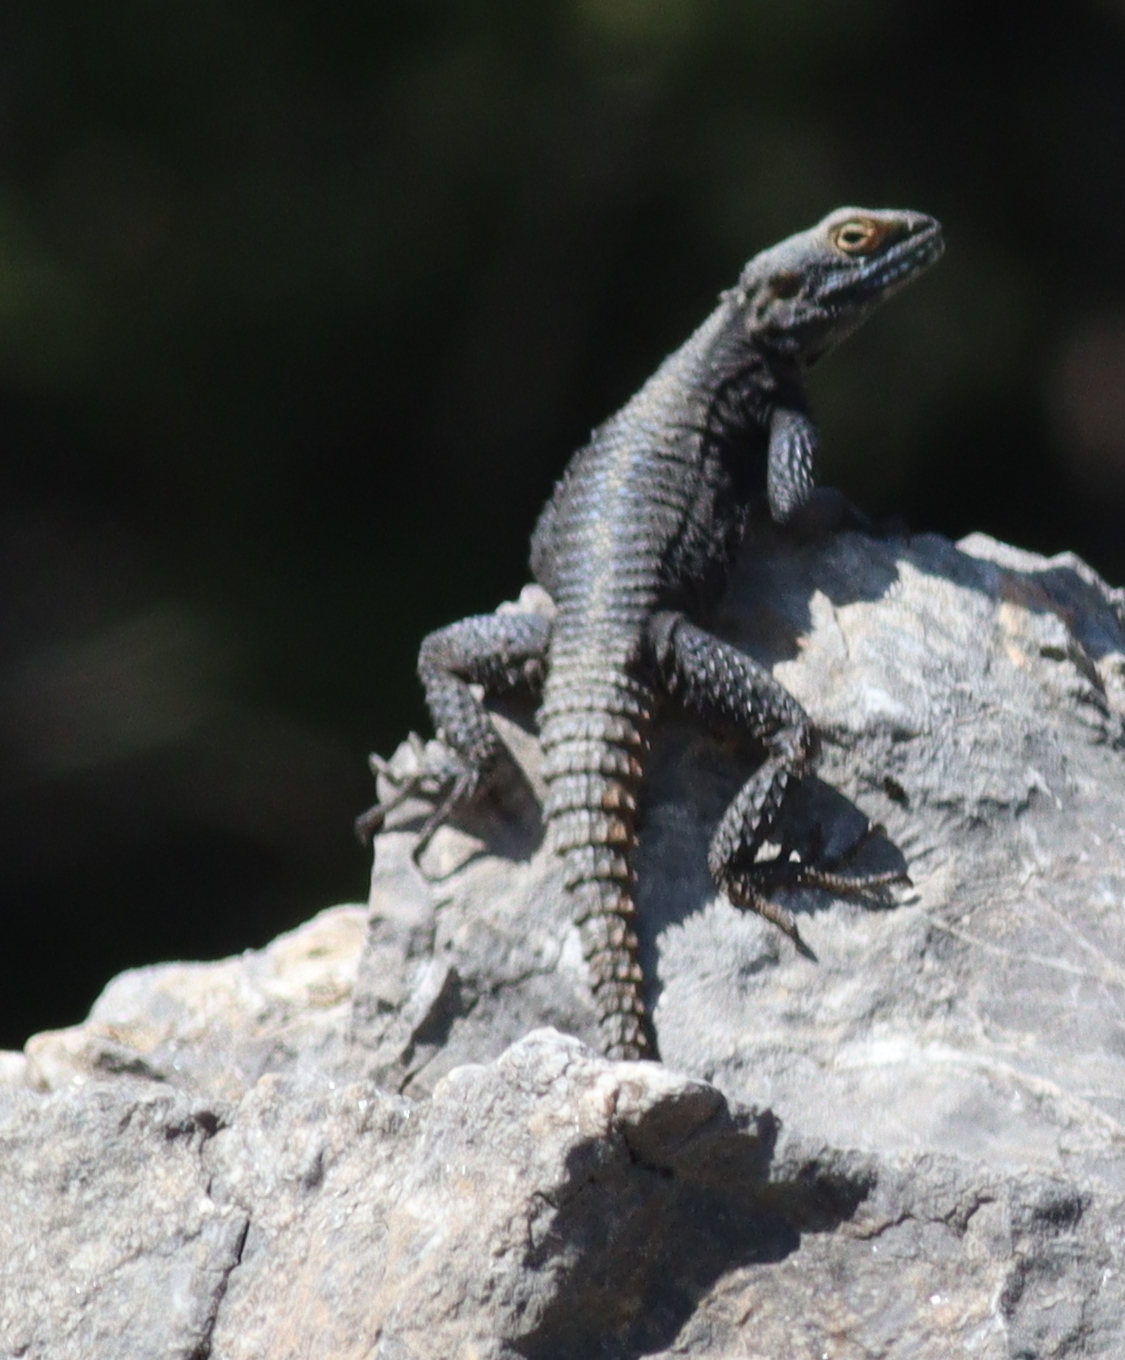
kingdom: Animalia
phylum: Chordata
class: Squamata
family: Agamidae
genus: Stellagama
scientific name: Stellagama stellio
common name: Starred agama
